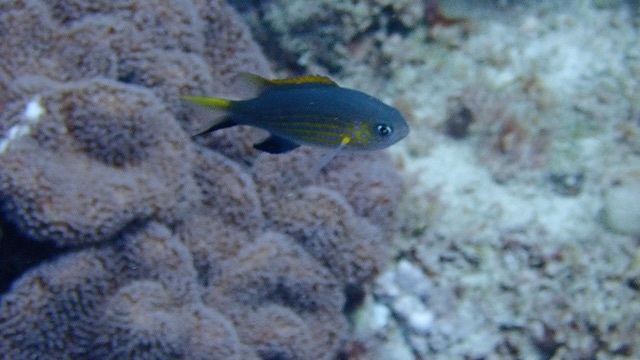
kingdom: Animalia
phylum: Chordata
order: Perciformes
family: Pomacentridae
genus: Chromis
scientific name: Chromis vanderbilti
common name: Vanderbilt's chromis
